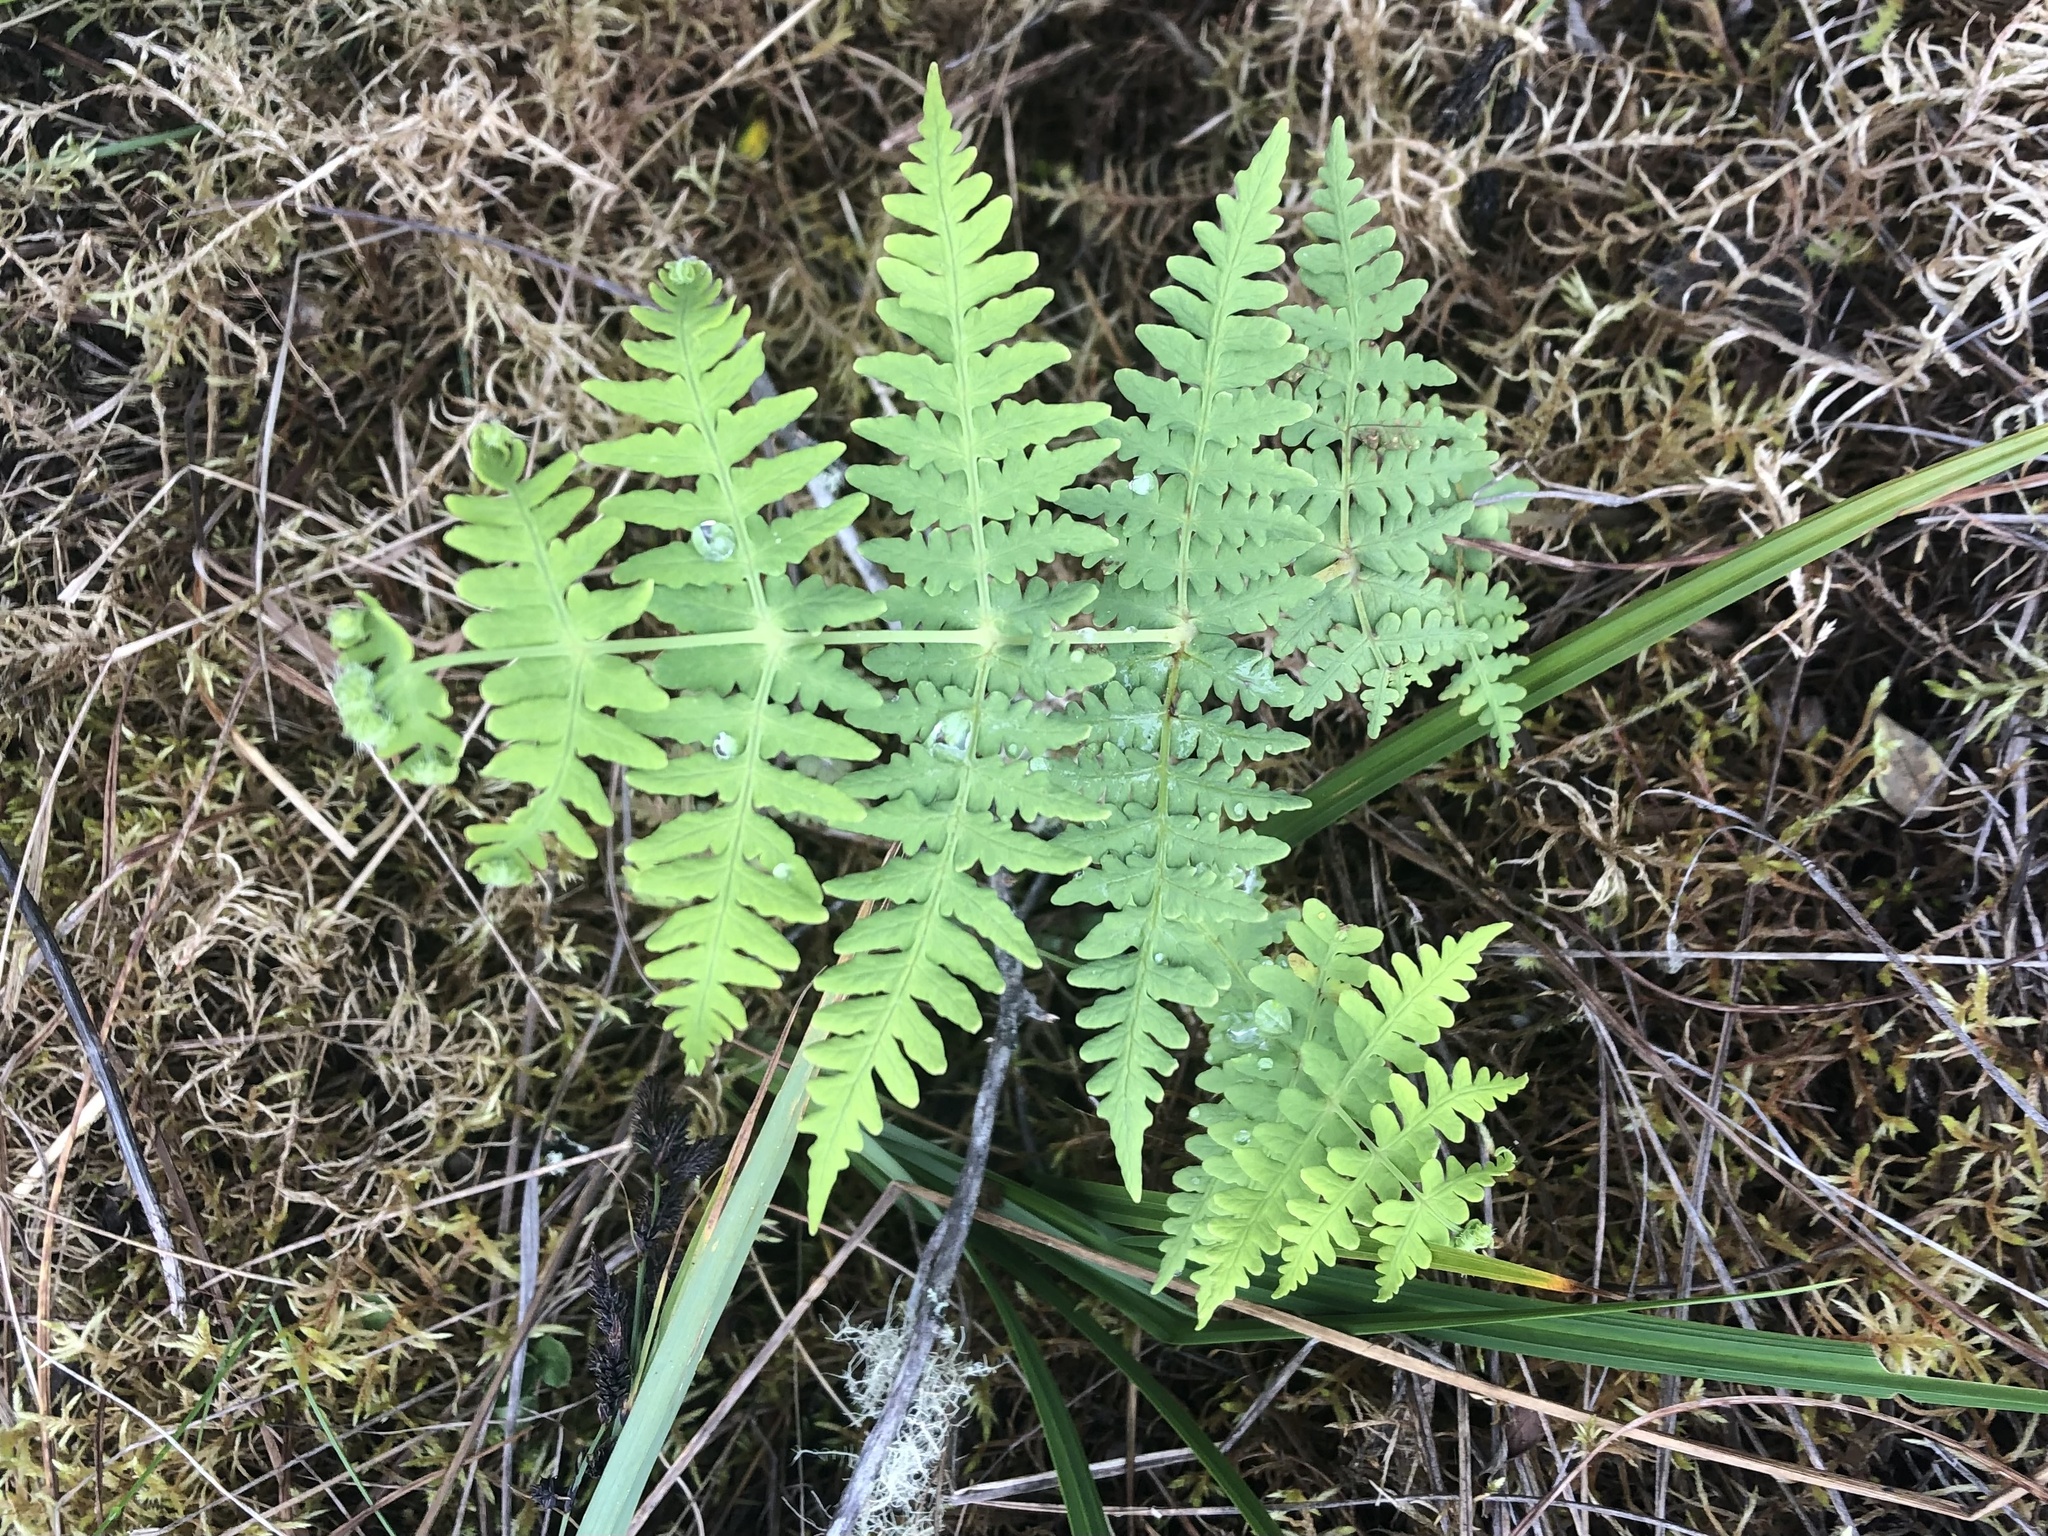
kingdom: Plantae
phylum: Tracheophyta
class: Polypodiopsida
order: Polypodiales
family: Dennstaedtiaceae
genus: Histiopteris
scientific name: Histiopteris incisa
